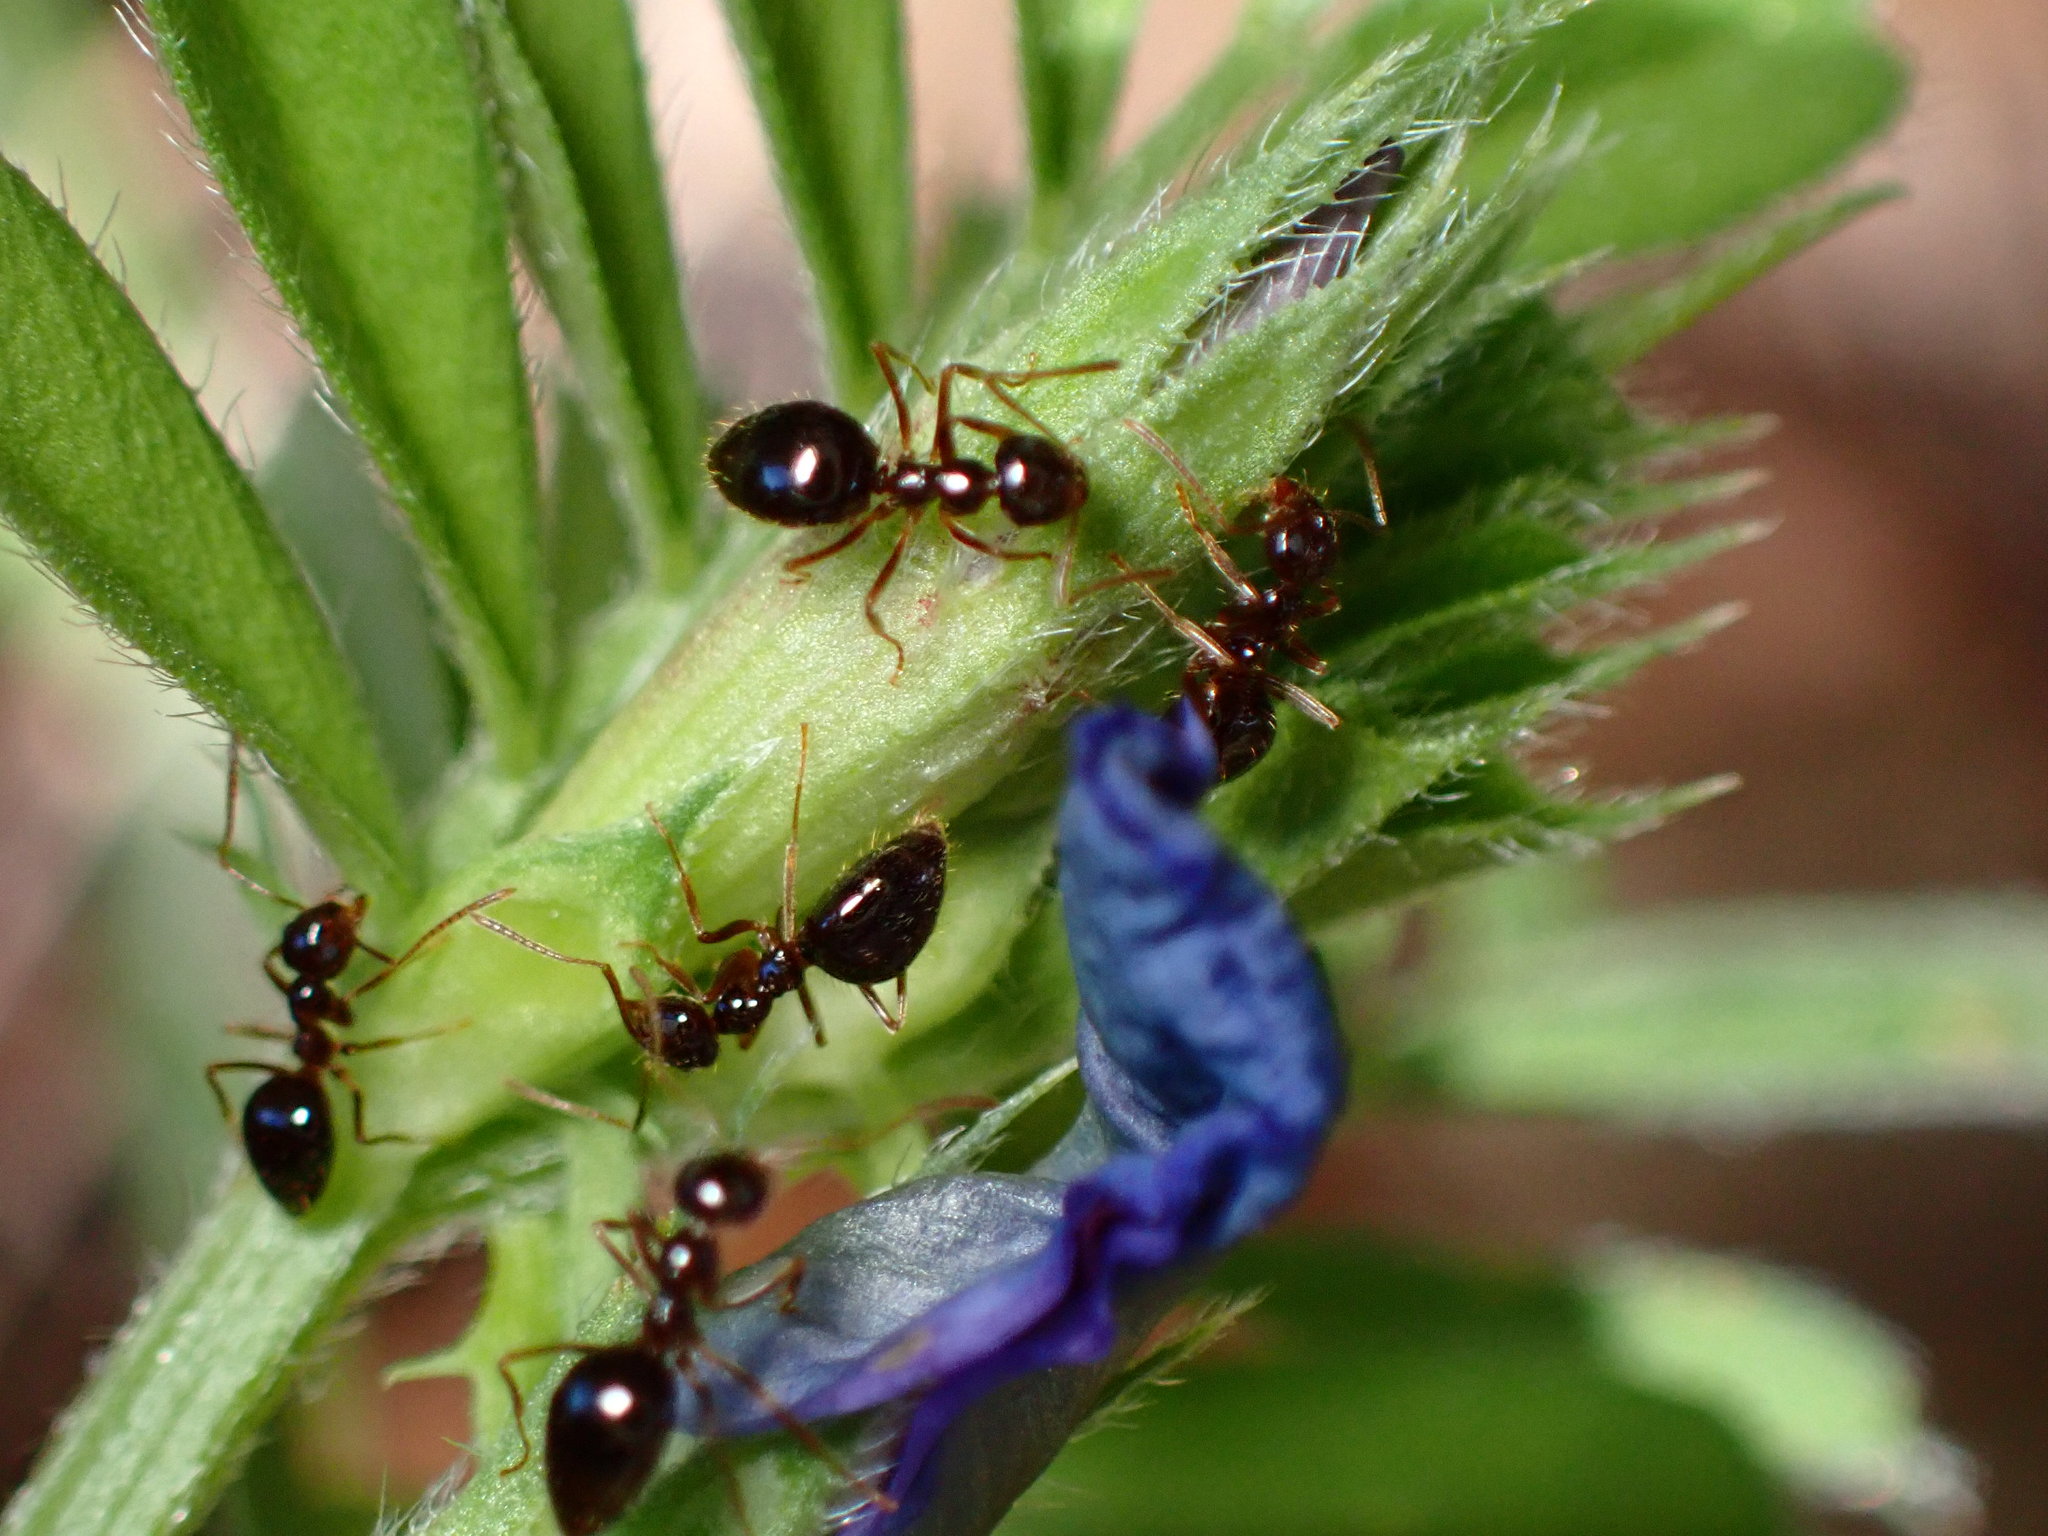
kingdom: Animalia
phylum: Arthropoda
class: Insecta
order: Hymenoptera
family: Formicidae
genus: Prenolepis
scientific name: Prenolepis imparis
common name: Small honey ant
